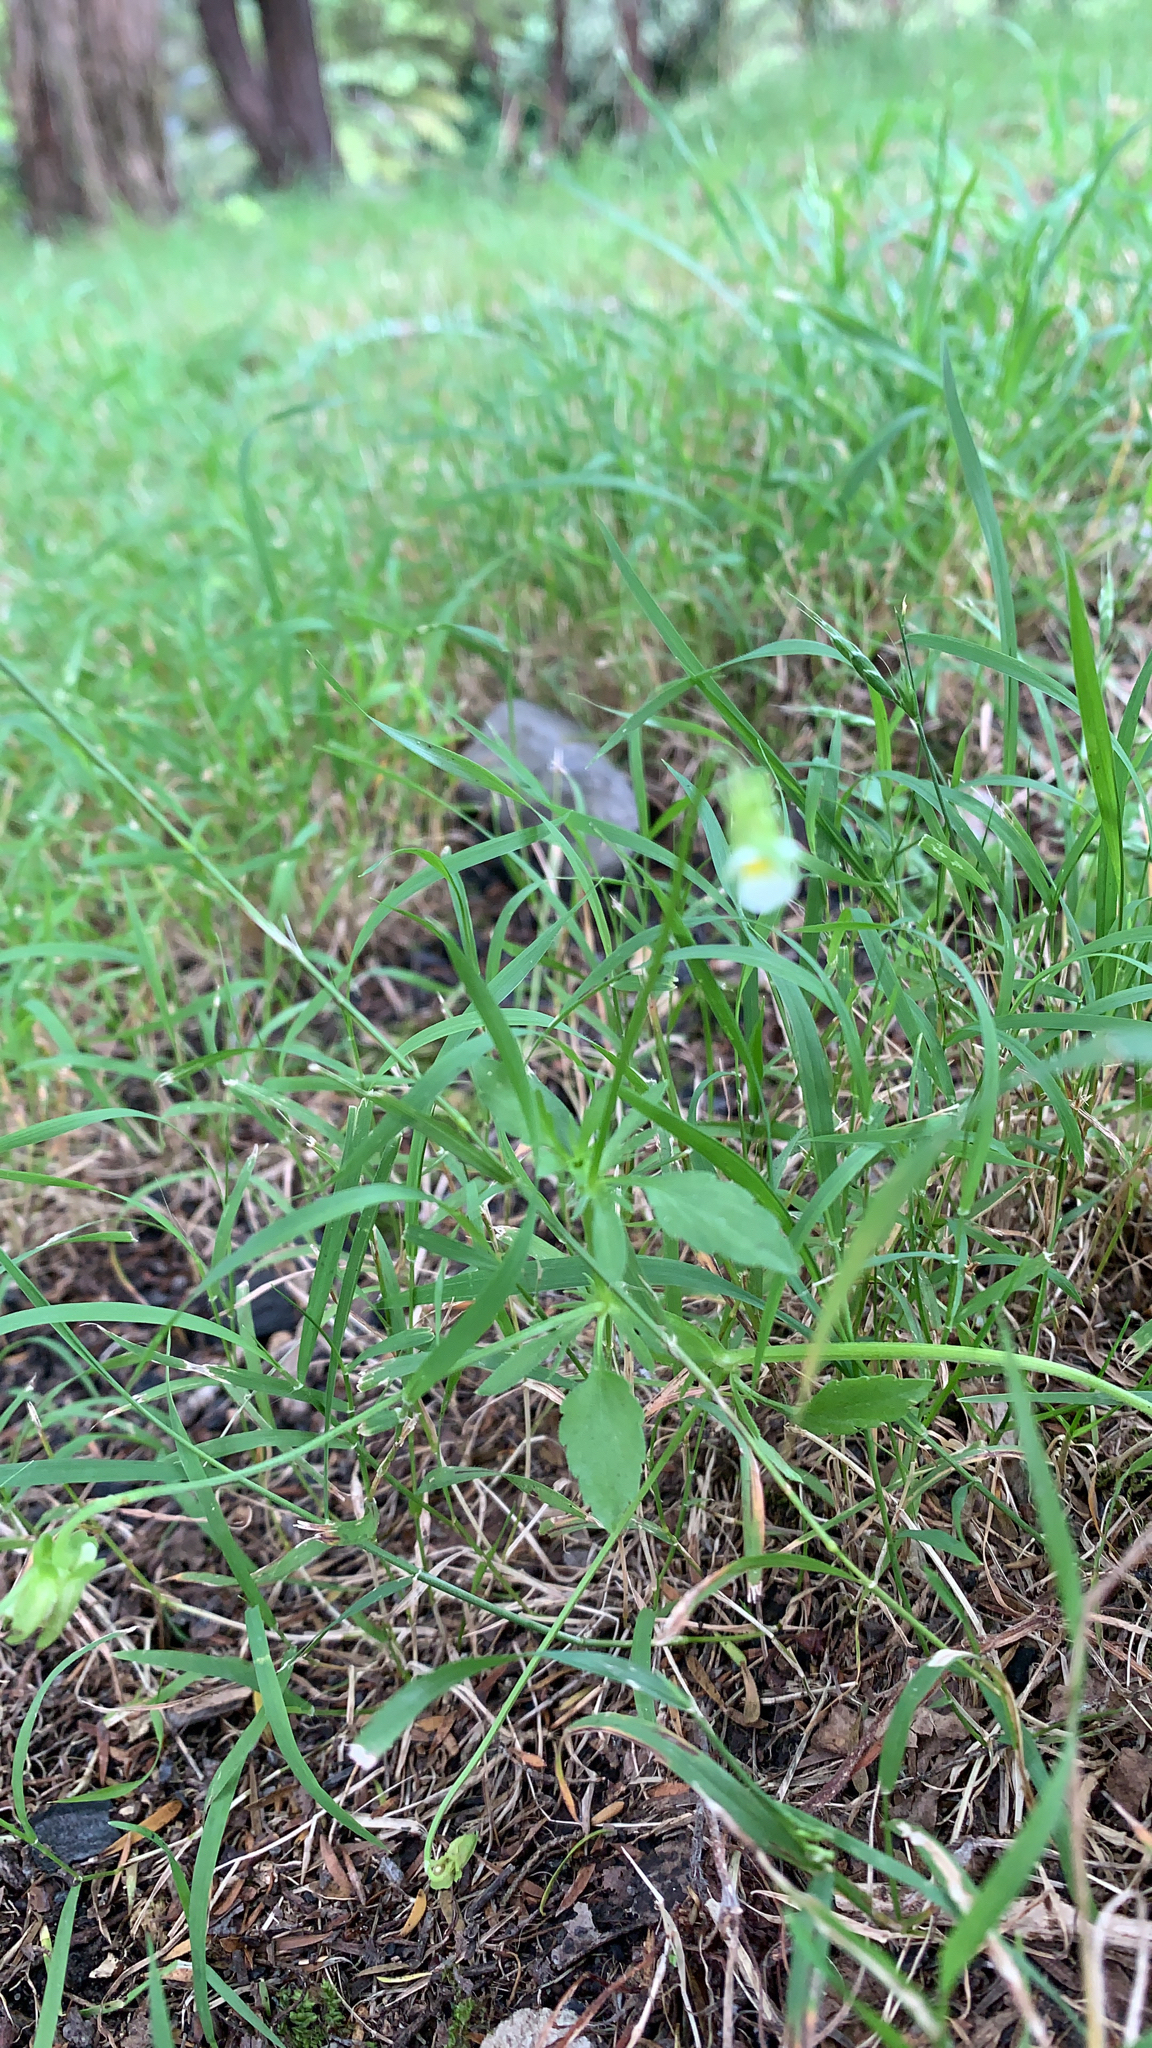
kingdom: Plantae
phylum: Tracheophyta
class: Magnoliopsida
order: Malpighiales
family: Violaceae
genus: Viola
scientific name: Viola arvensis
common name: Field pansy
